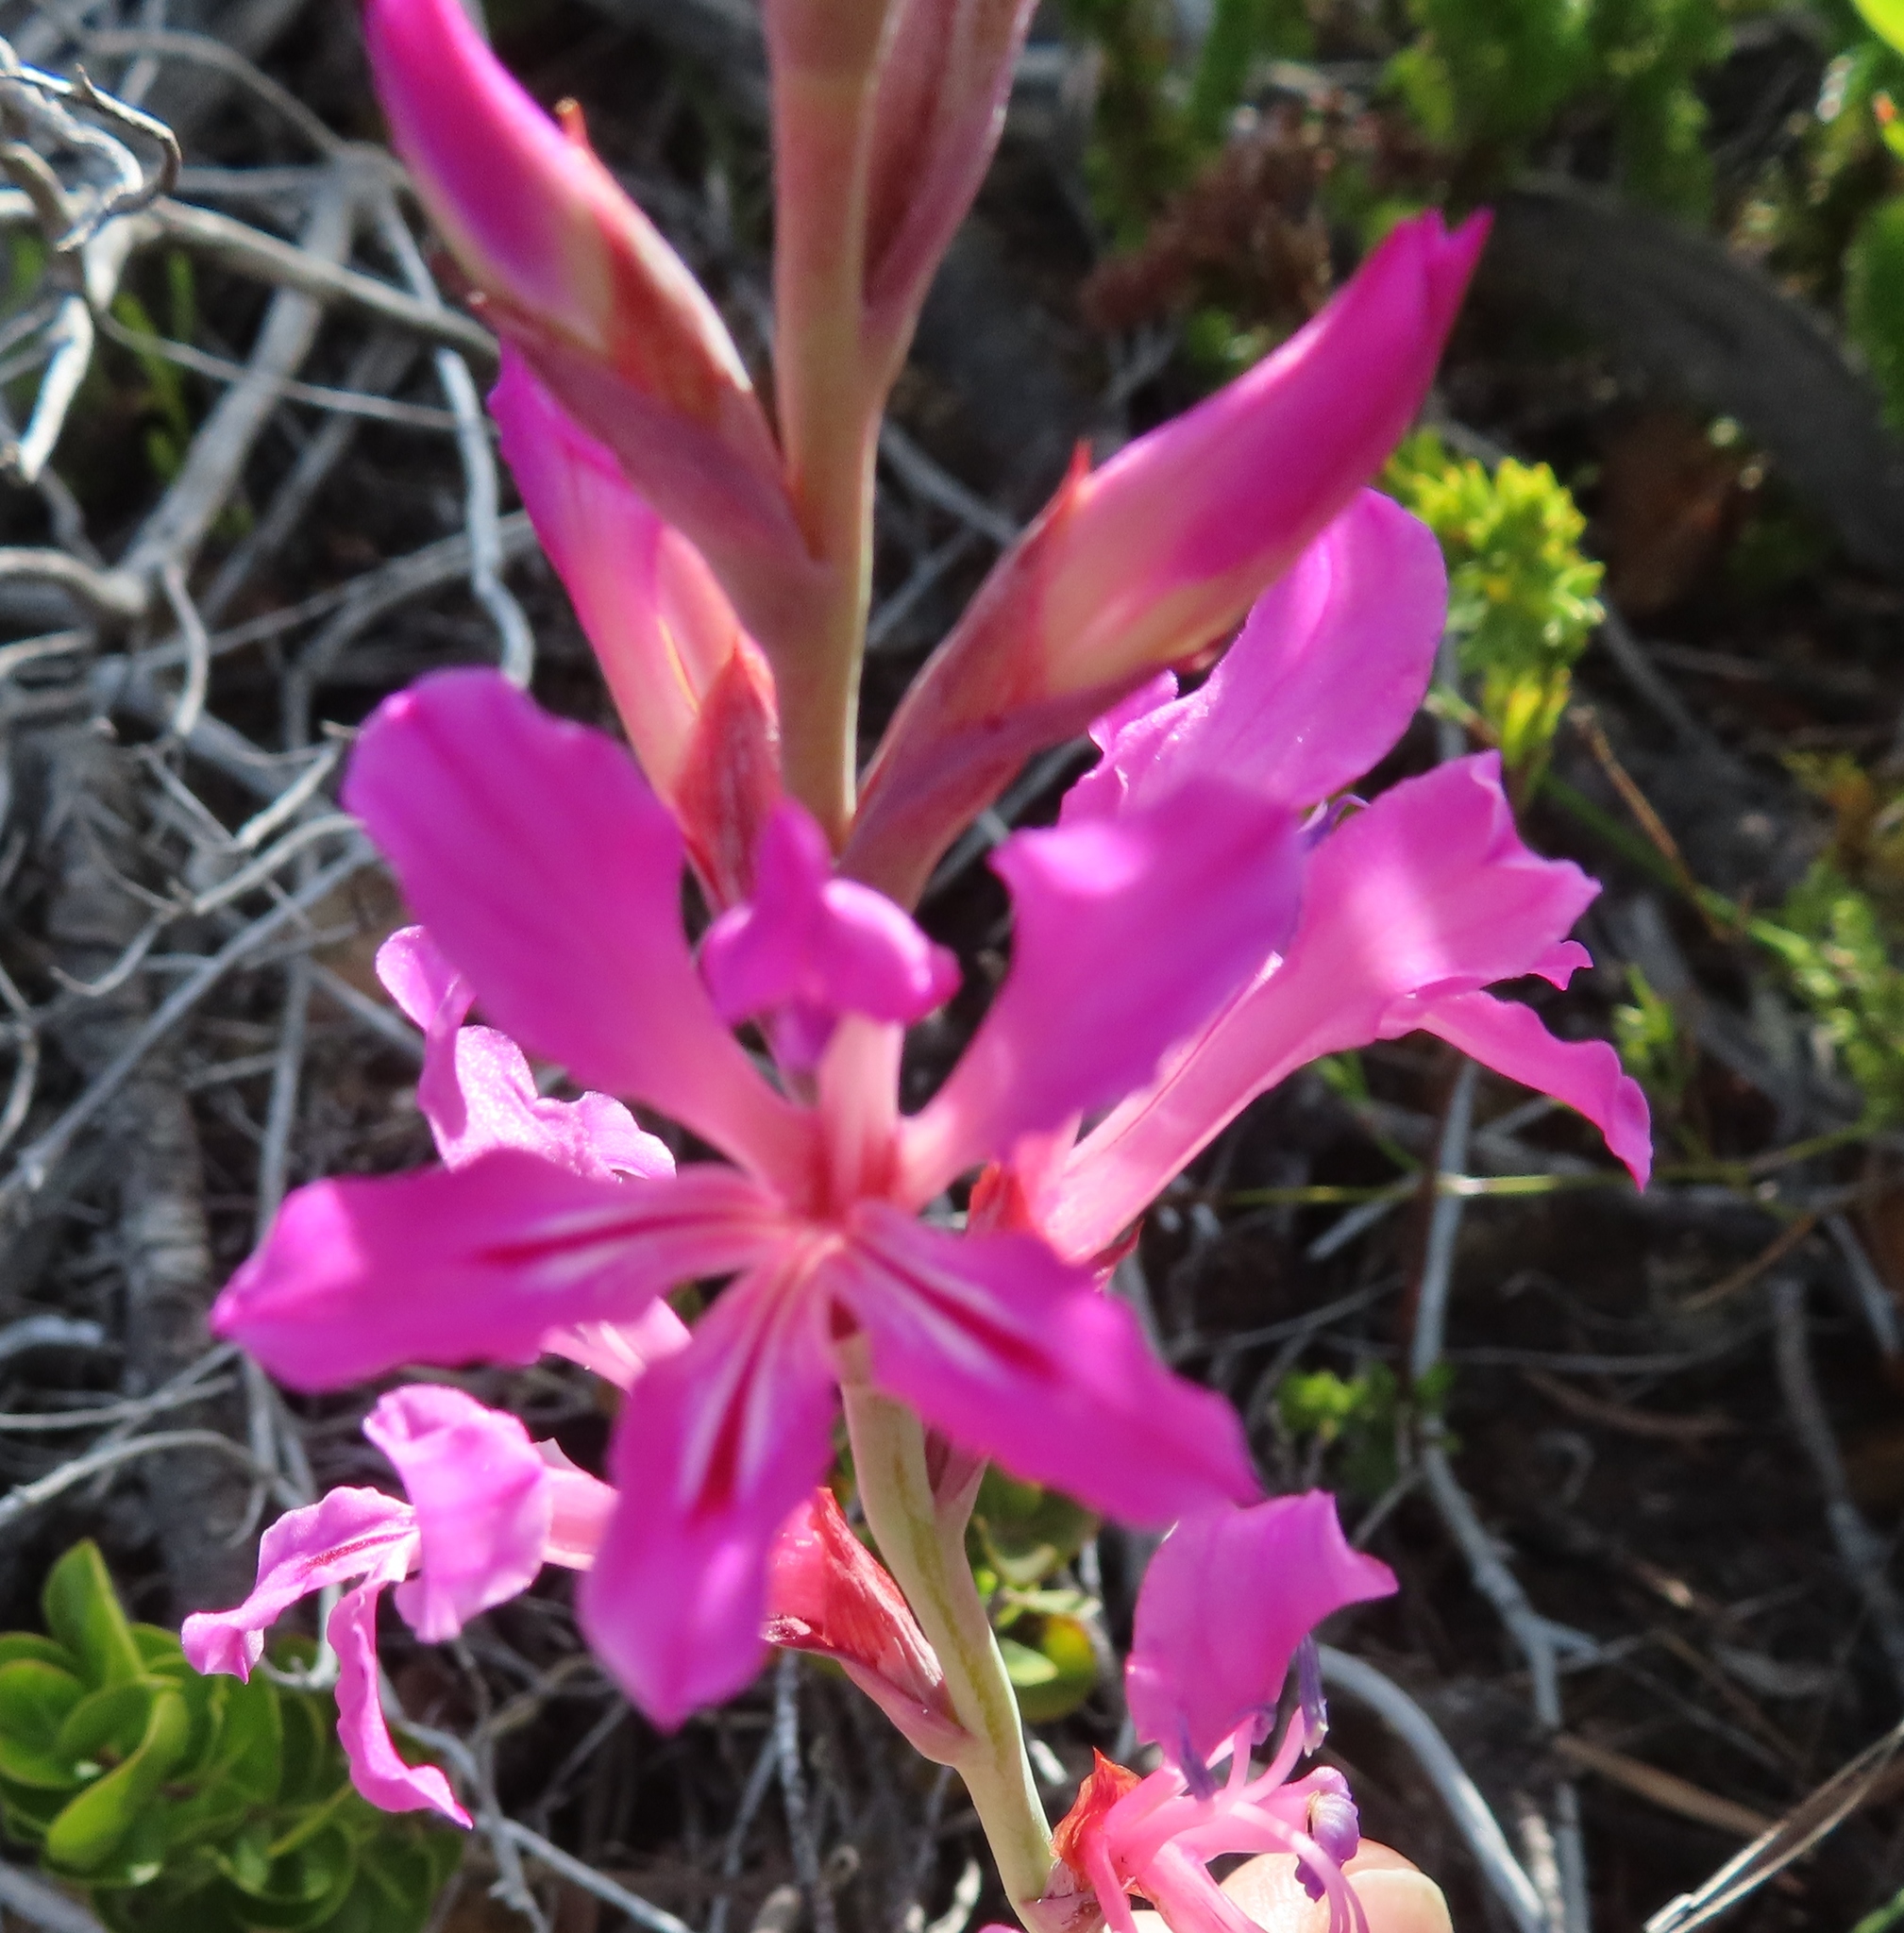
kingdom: Plantae
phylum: Tracheophyta
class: Liliopsida
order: Asparagales
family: Iridaceae
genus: Tritoniopsis
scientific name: Tritoniopsis lata
